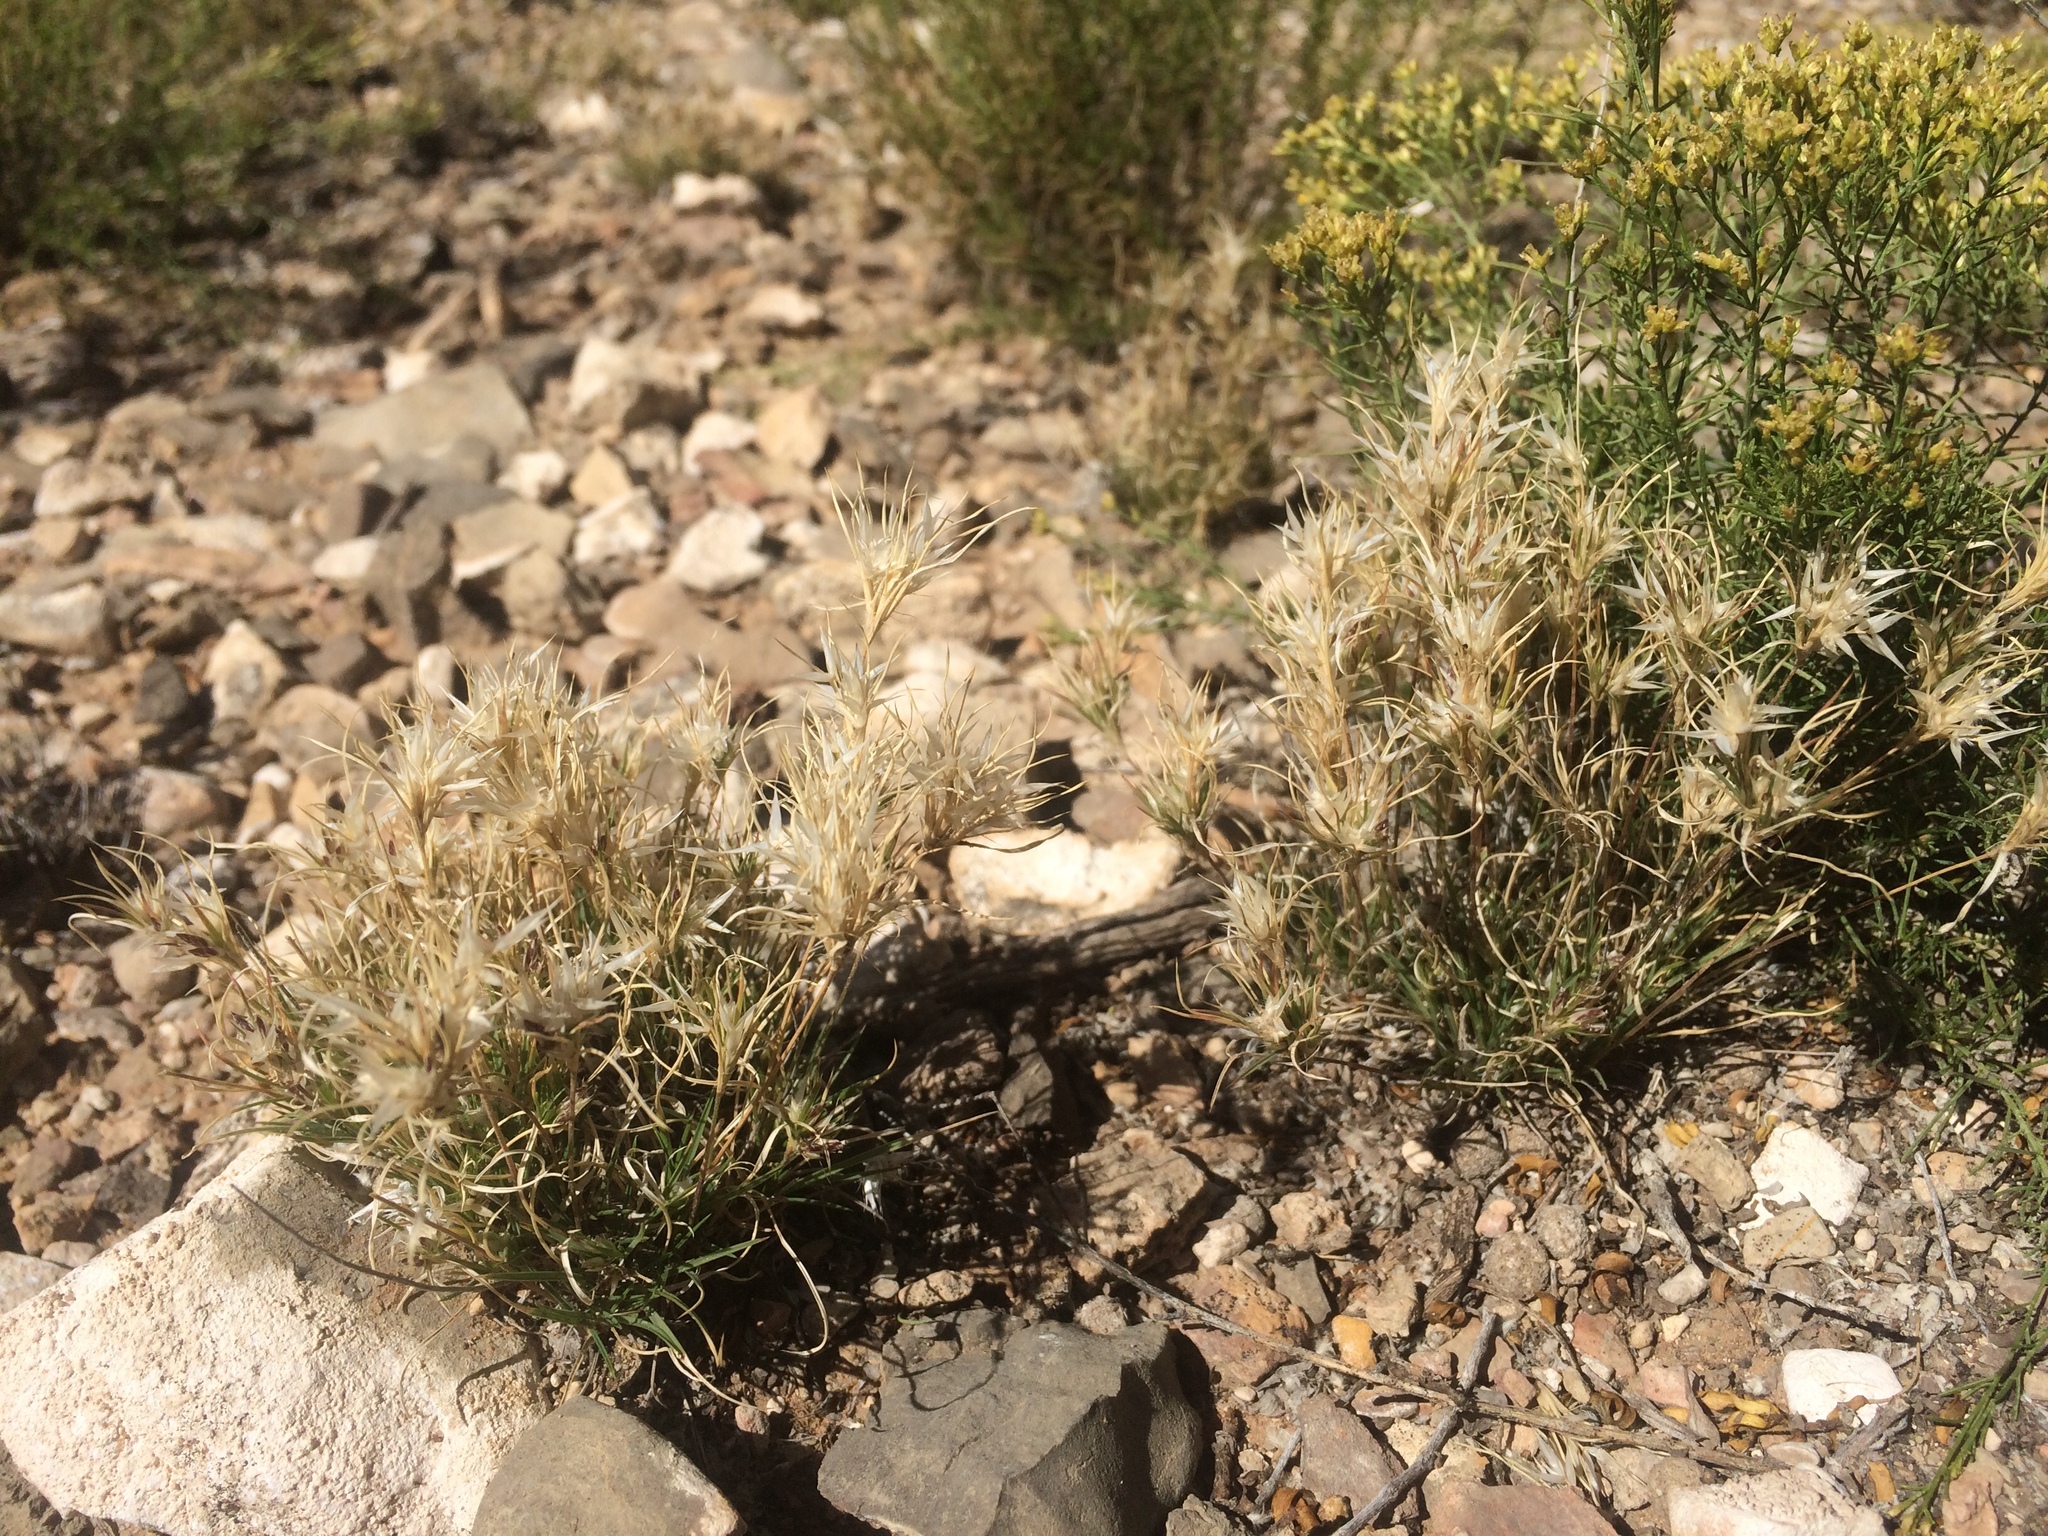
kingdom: Plantae
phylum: Tracheophyta
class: Liliopsida
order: Poales
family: Poaceae
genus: Dasyochloa
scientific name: Dasyochloa pulchella
